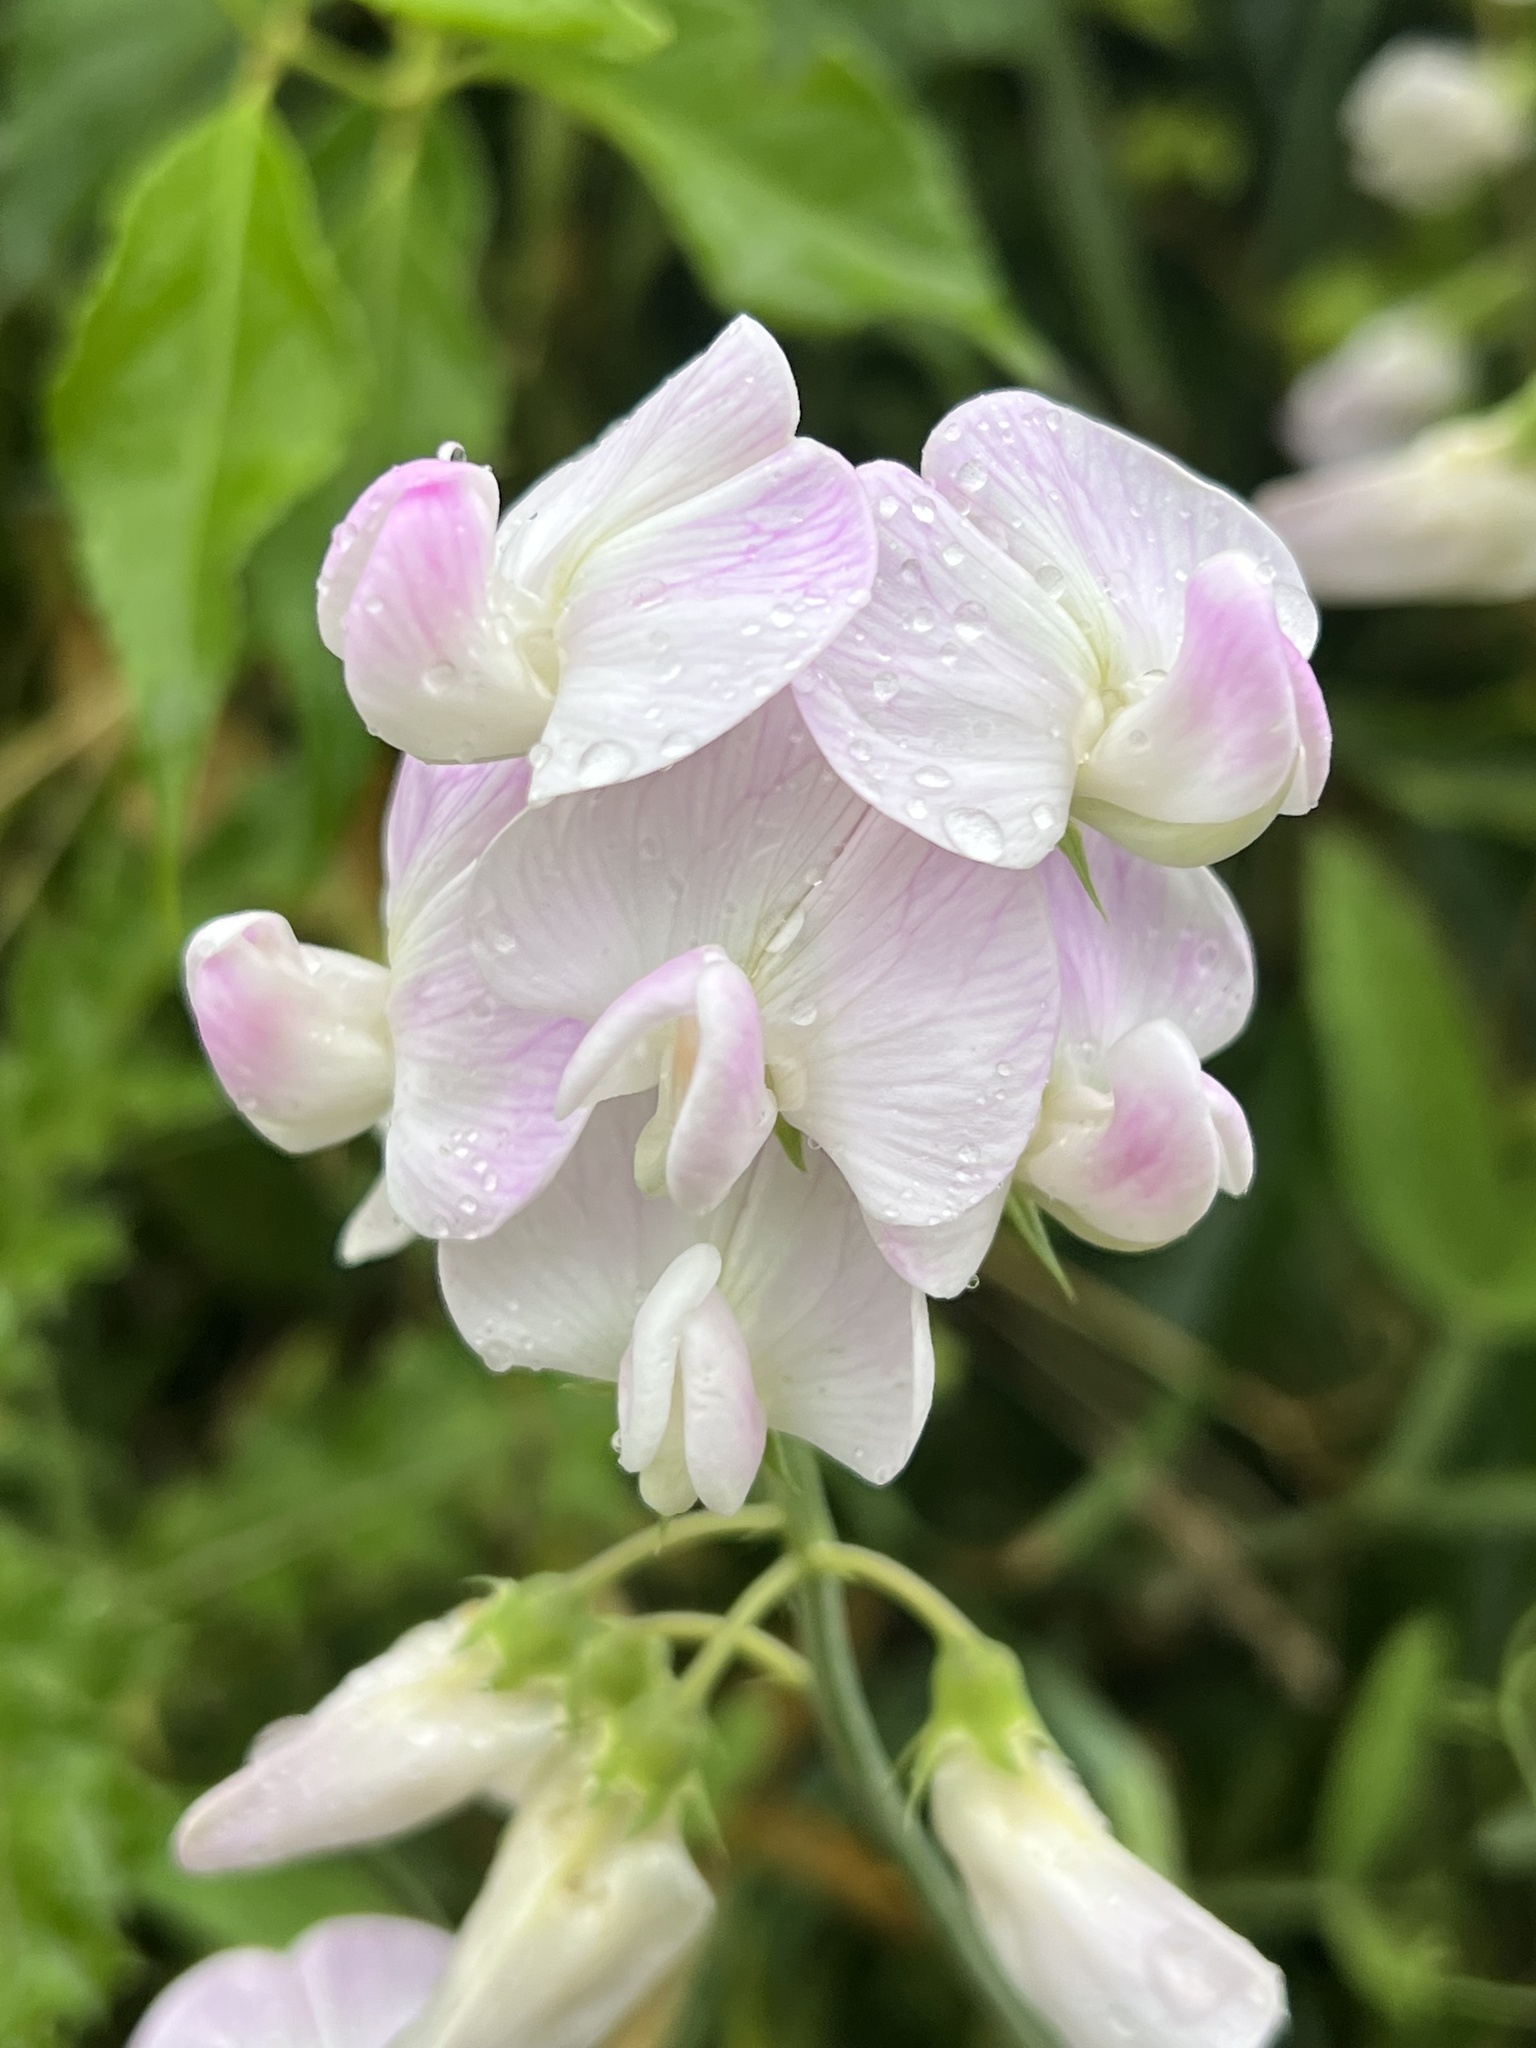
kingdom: Plantae
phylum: Tracheophyta
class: Magnoliopsida
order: Fabales
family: Fabaceae
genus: Lathyrus
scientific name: Lathyrus latifolius
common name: Perennial pea
